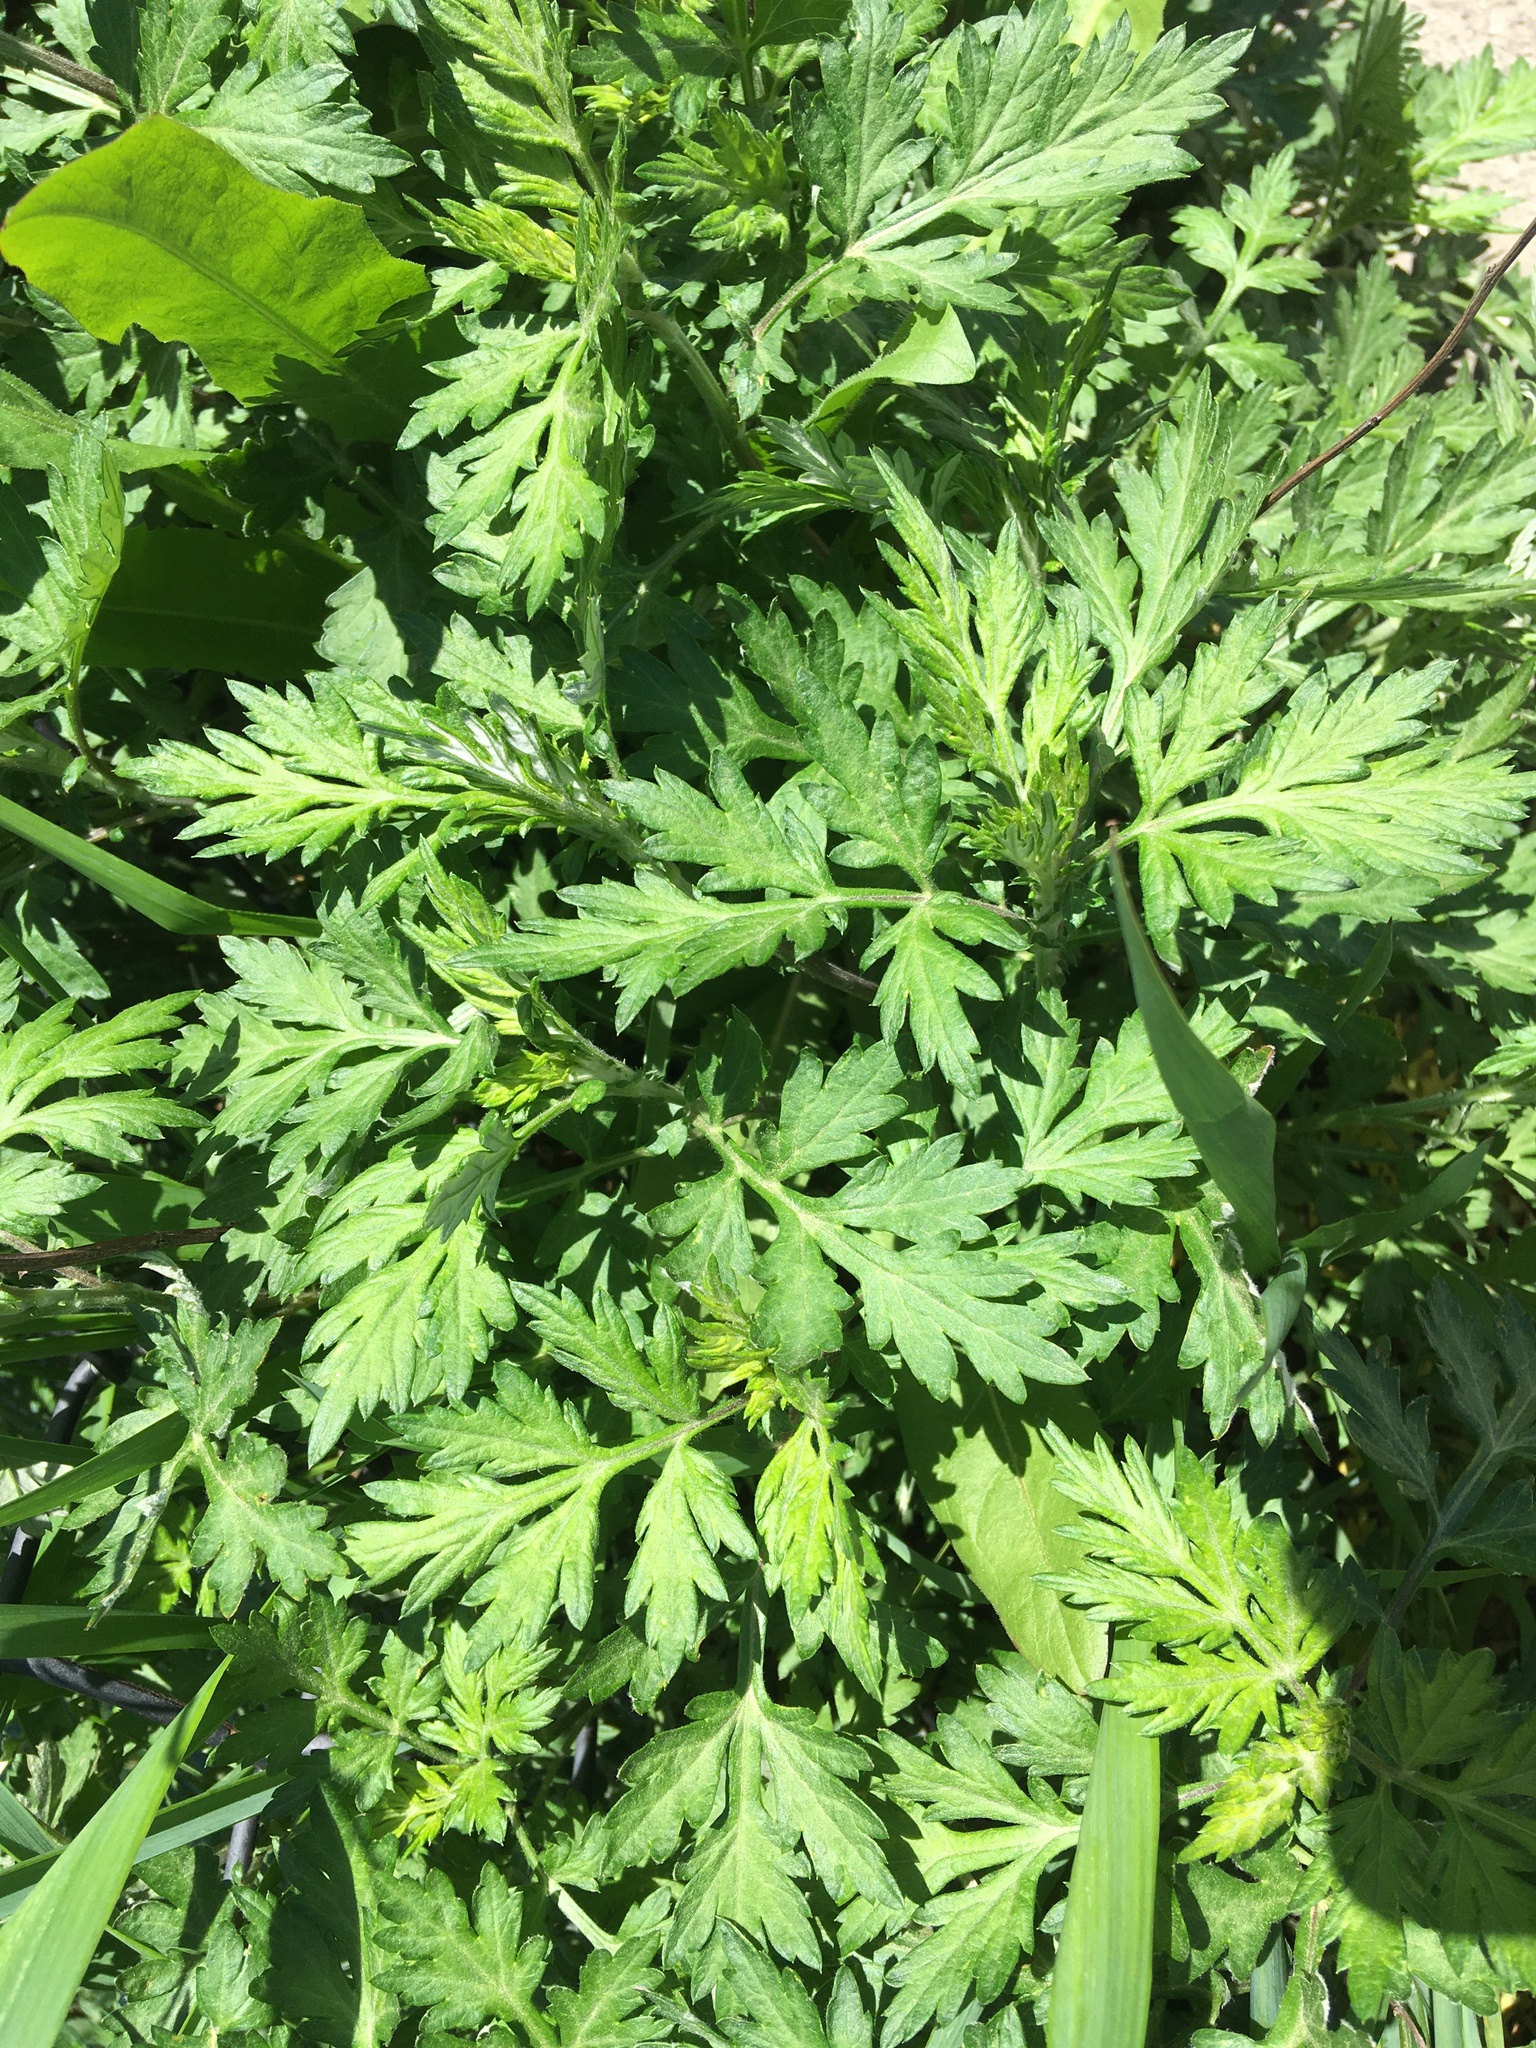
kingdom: Plantae
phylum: Tracheophyta
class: Magnoliopsida
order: Asterales
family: Asteraceae
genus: Artemisia
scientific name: Artemisia vulgaris
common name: Mugwort
